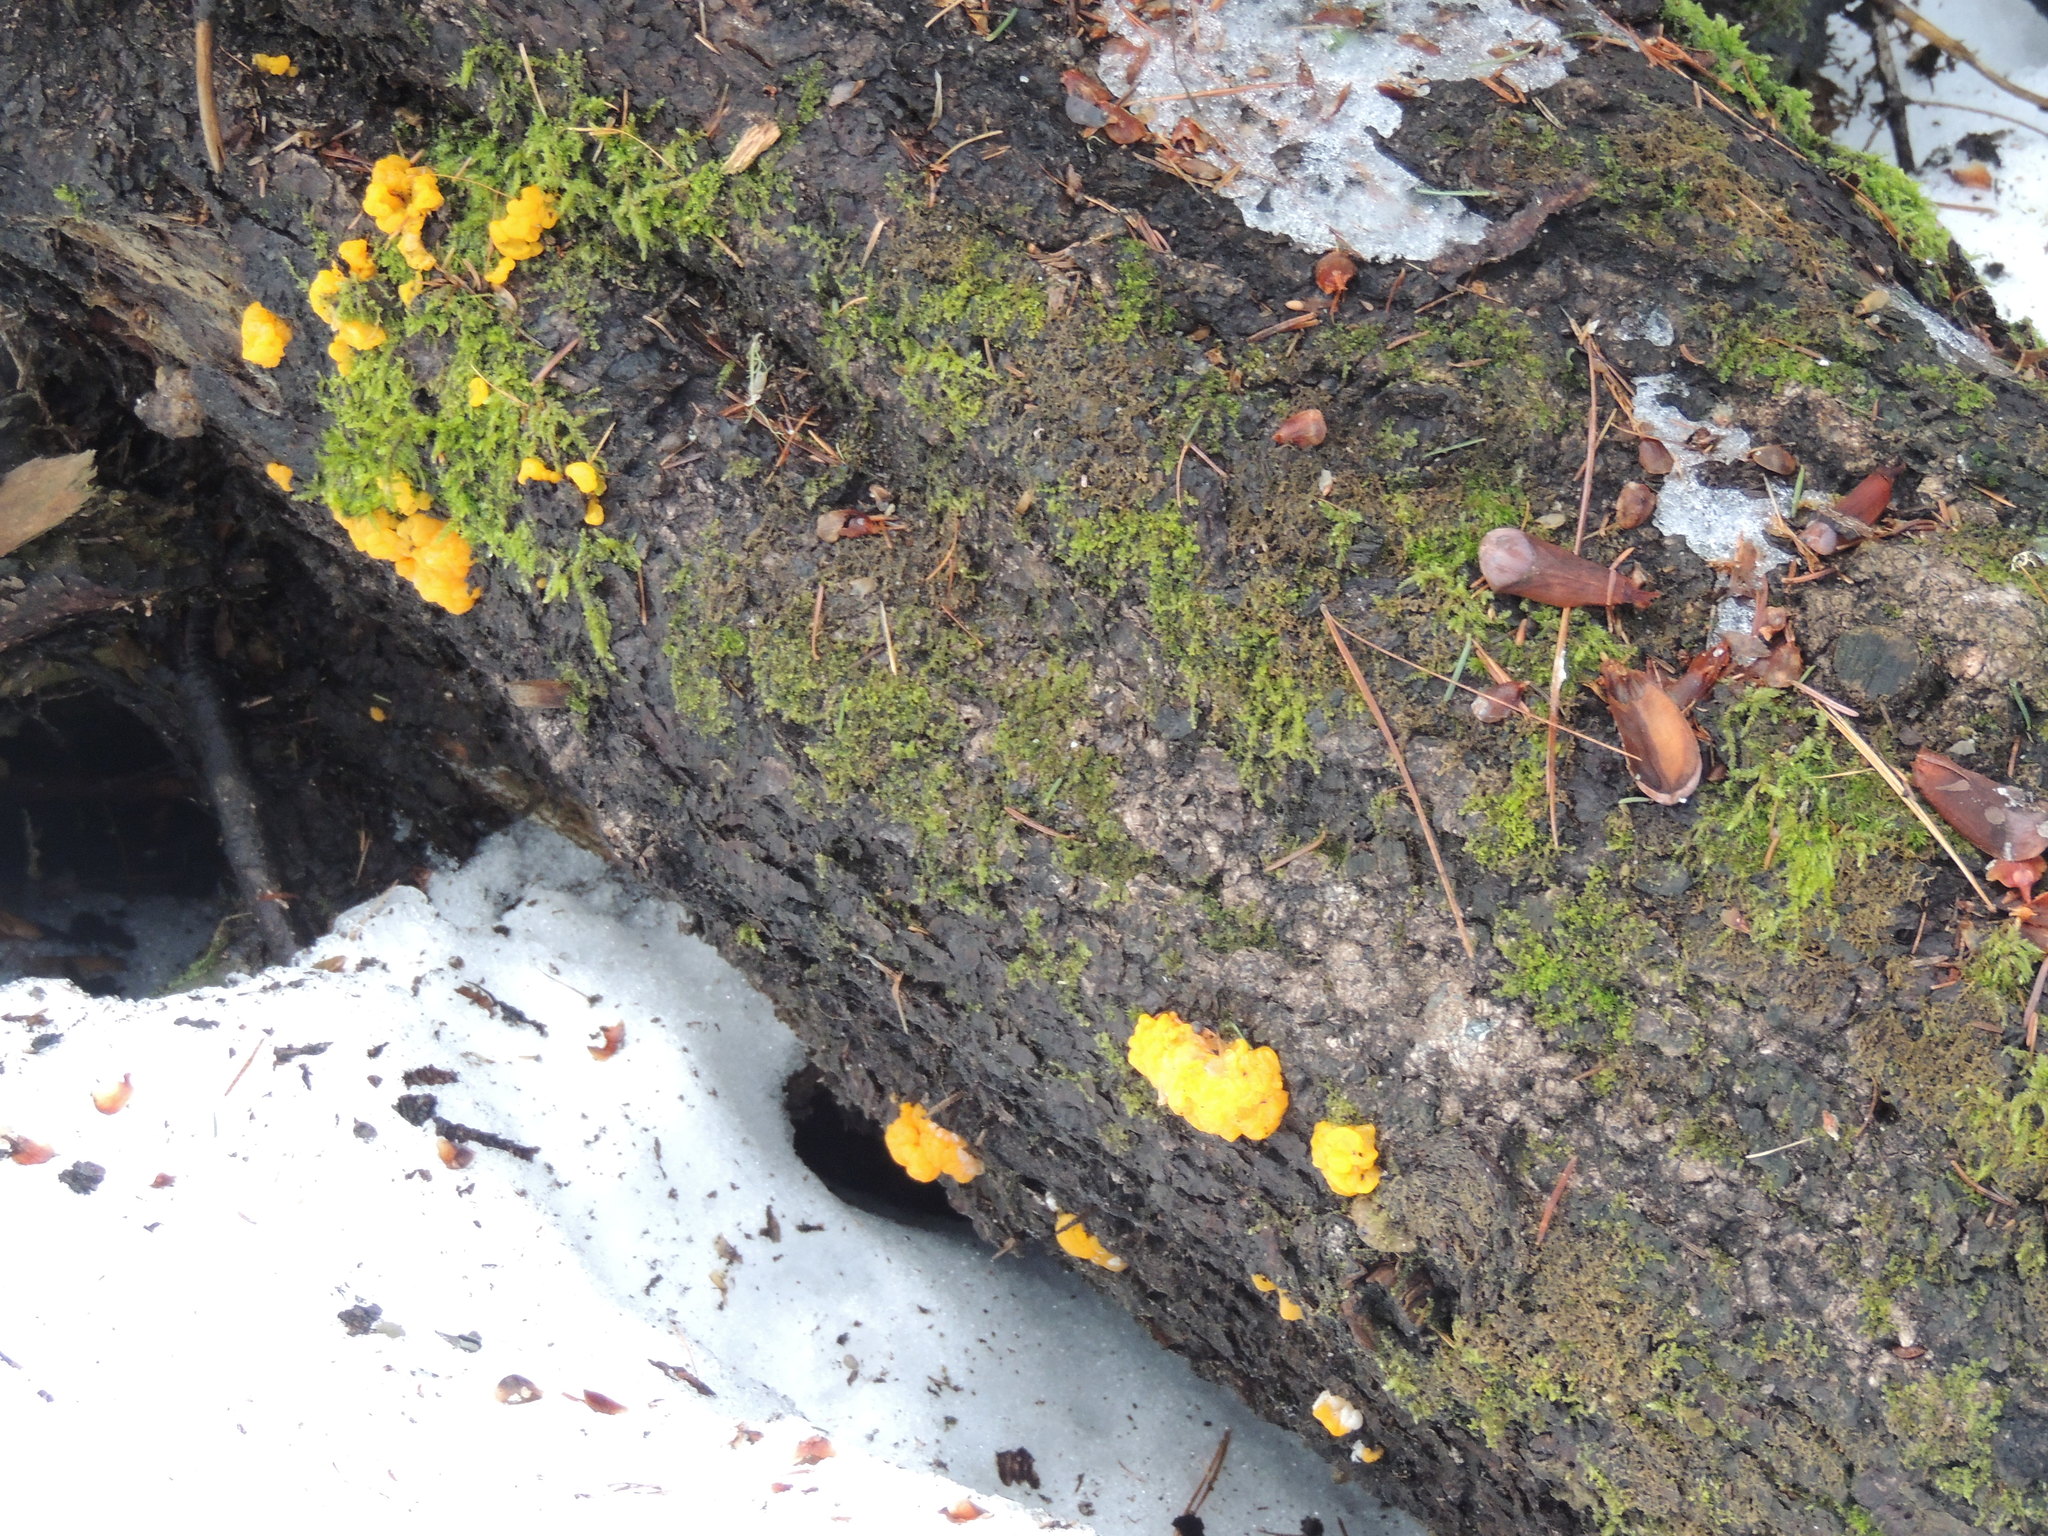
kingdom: Fungi
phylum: Basidiomycota
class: Dacrymycetes
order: Dacrymycetales
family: Dacrymycetaceae
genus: Dacrymyces
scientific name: Dacrymyces chrysospermus
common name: Orange jelly spot
